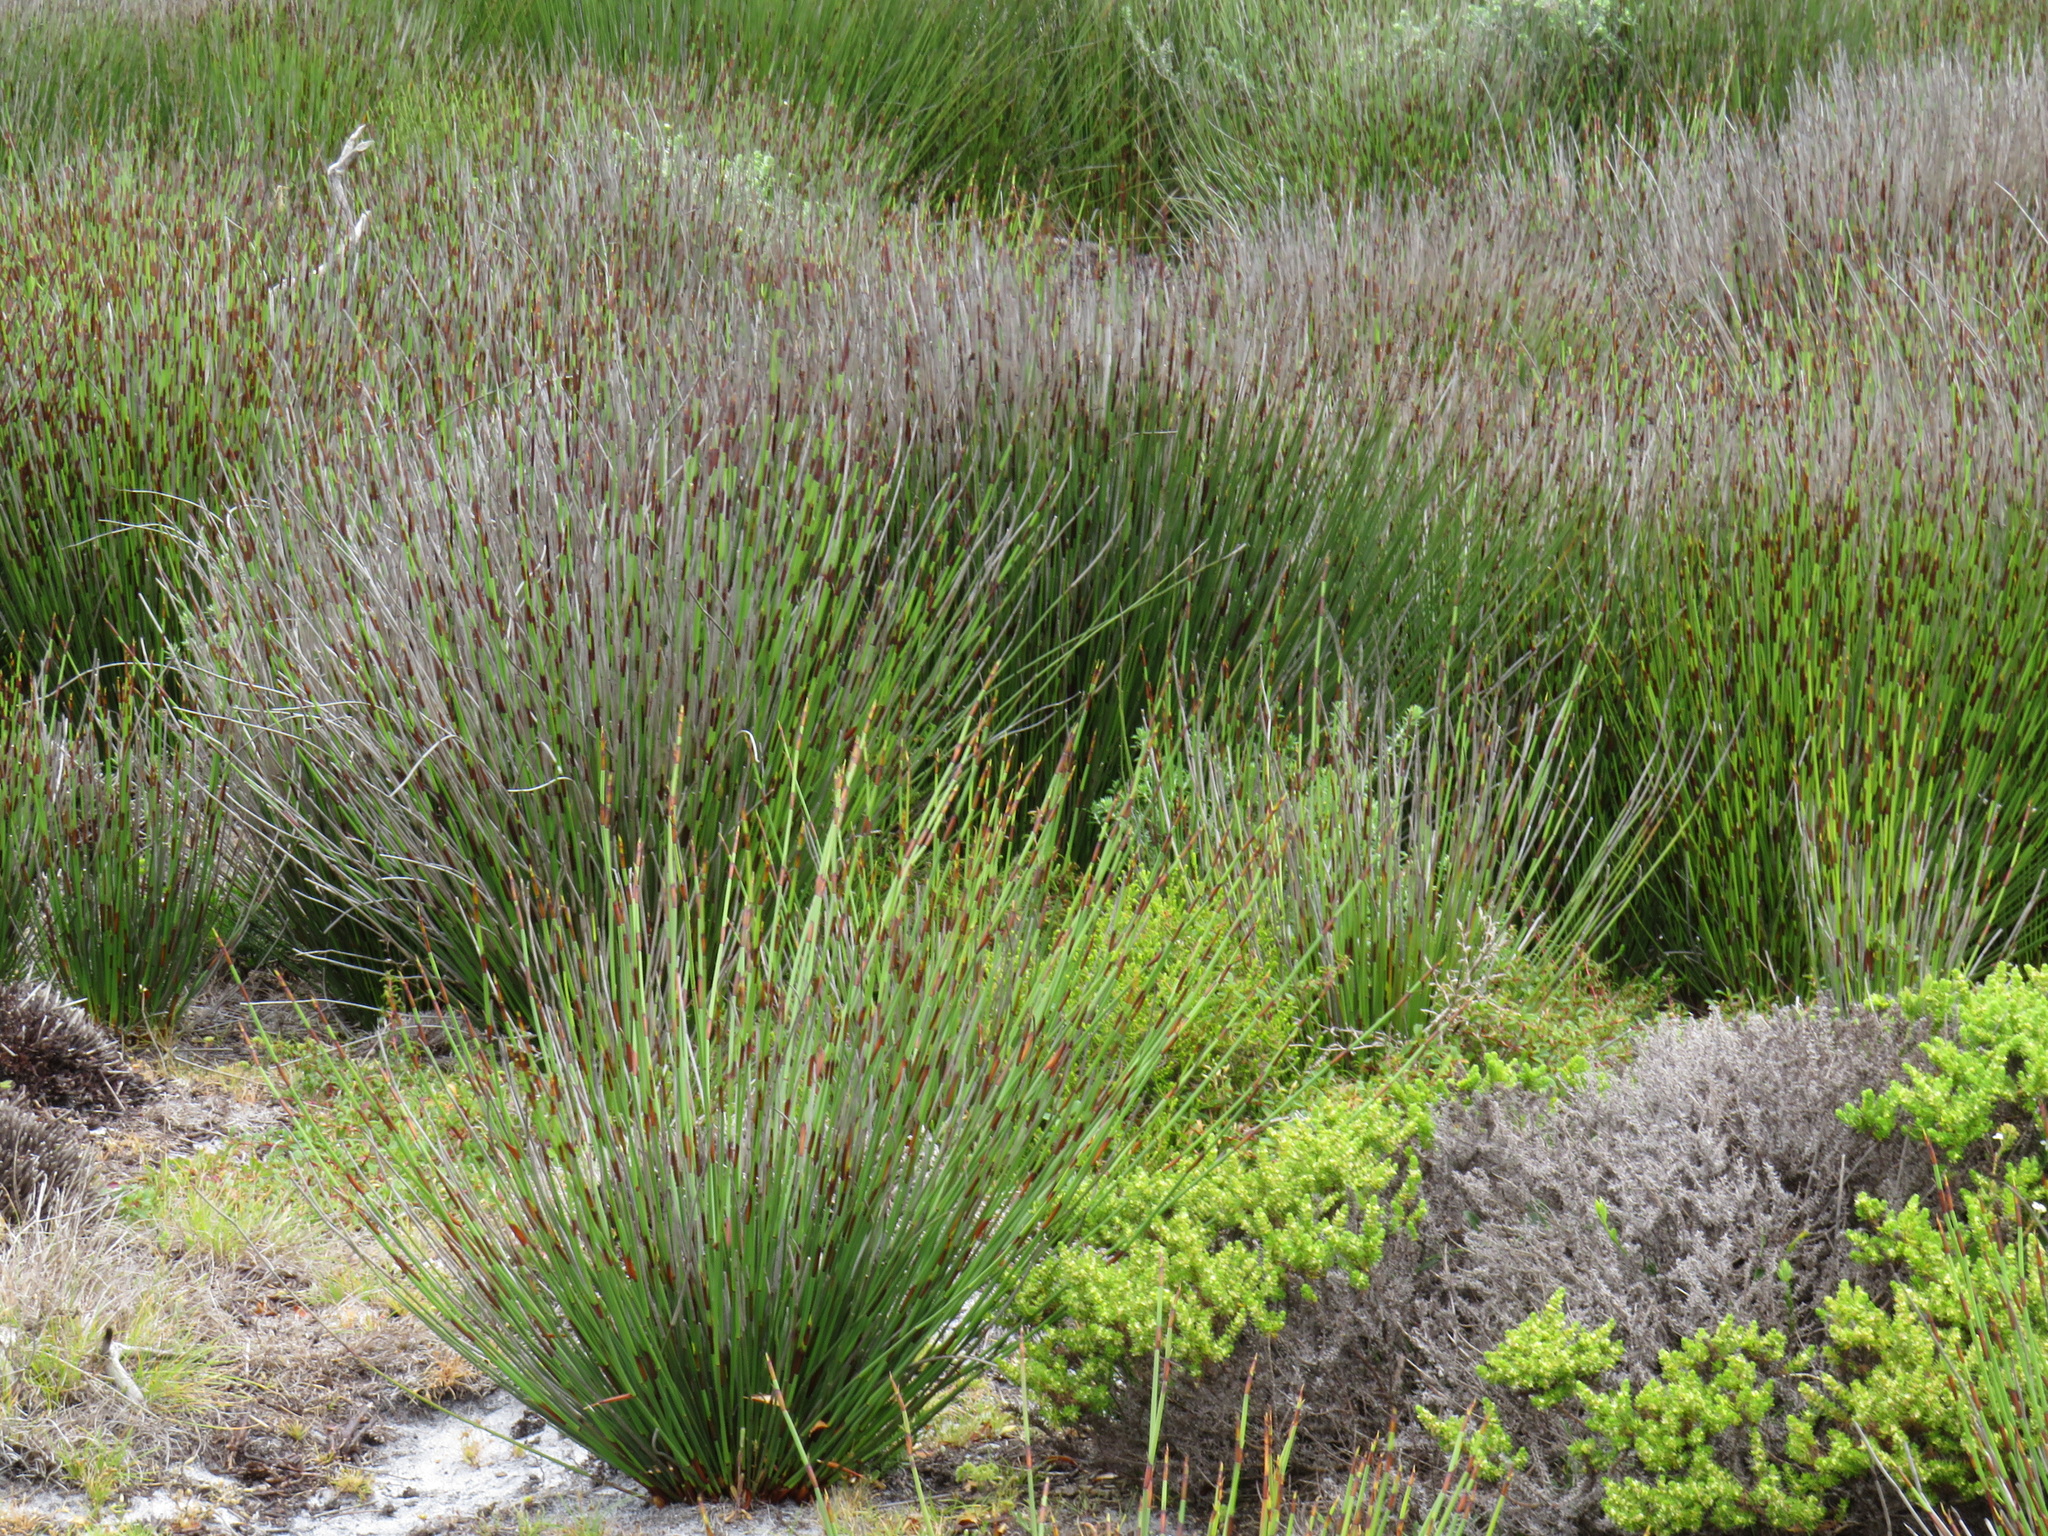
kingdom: Plantae
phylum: Tracheophyta
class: Liliopsida
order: Poales
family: Restionaceae
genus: Elegia
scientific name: Elegia tectorum
